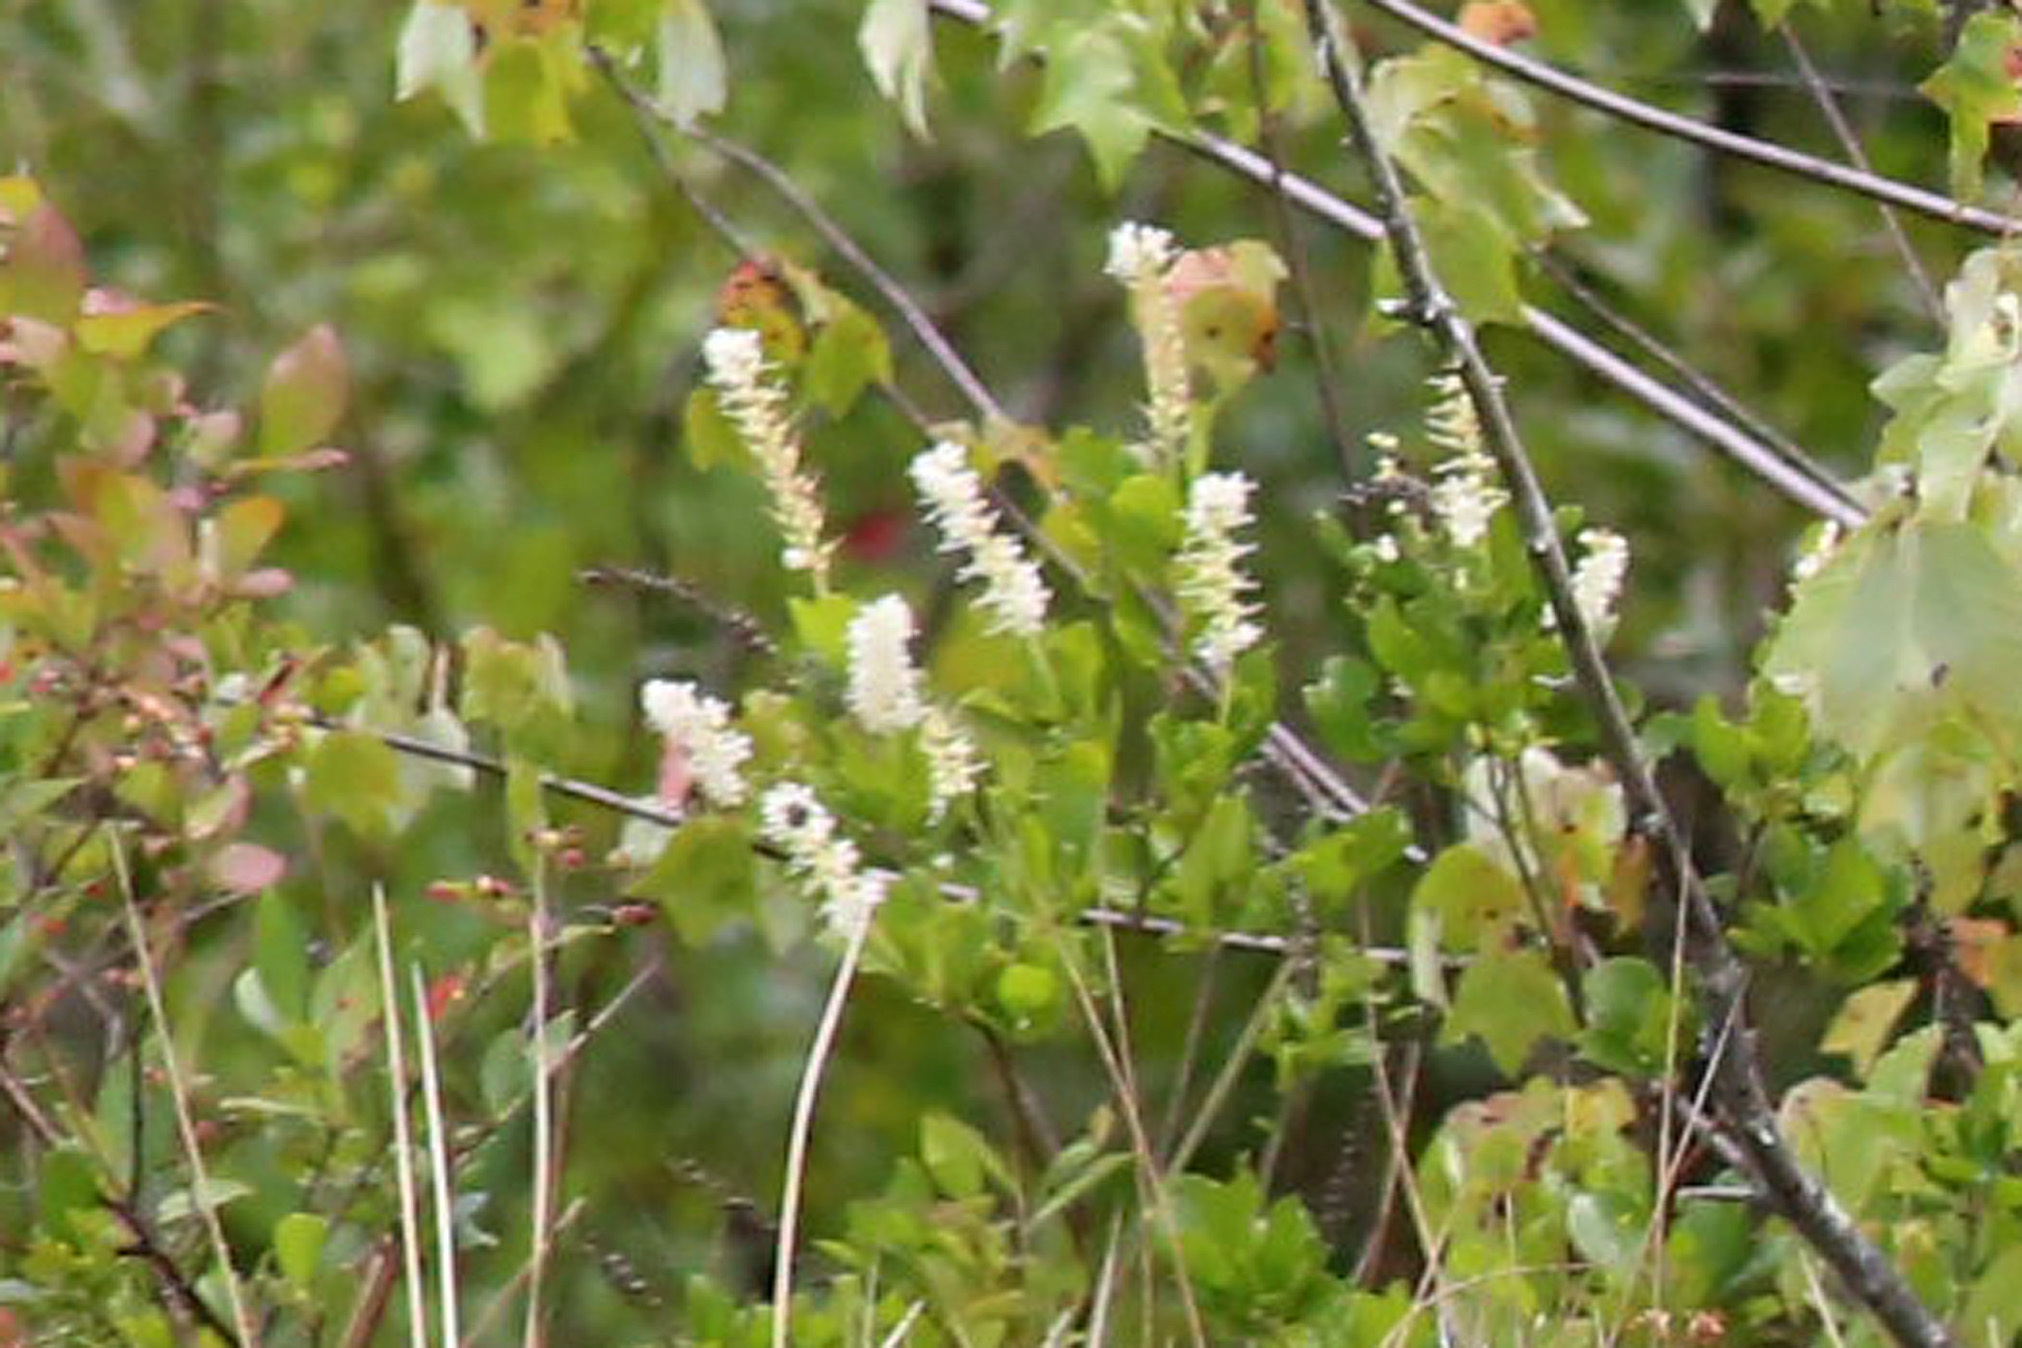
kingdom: Plantae
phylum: Tracheophyta
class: Magnoliopsida
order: Ericales
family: Clethraceae
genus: Clethra
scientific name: Clethra alnifolia
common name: Sweet pepperbush
